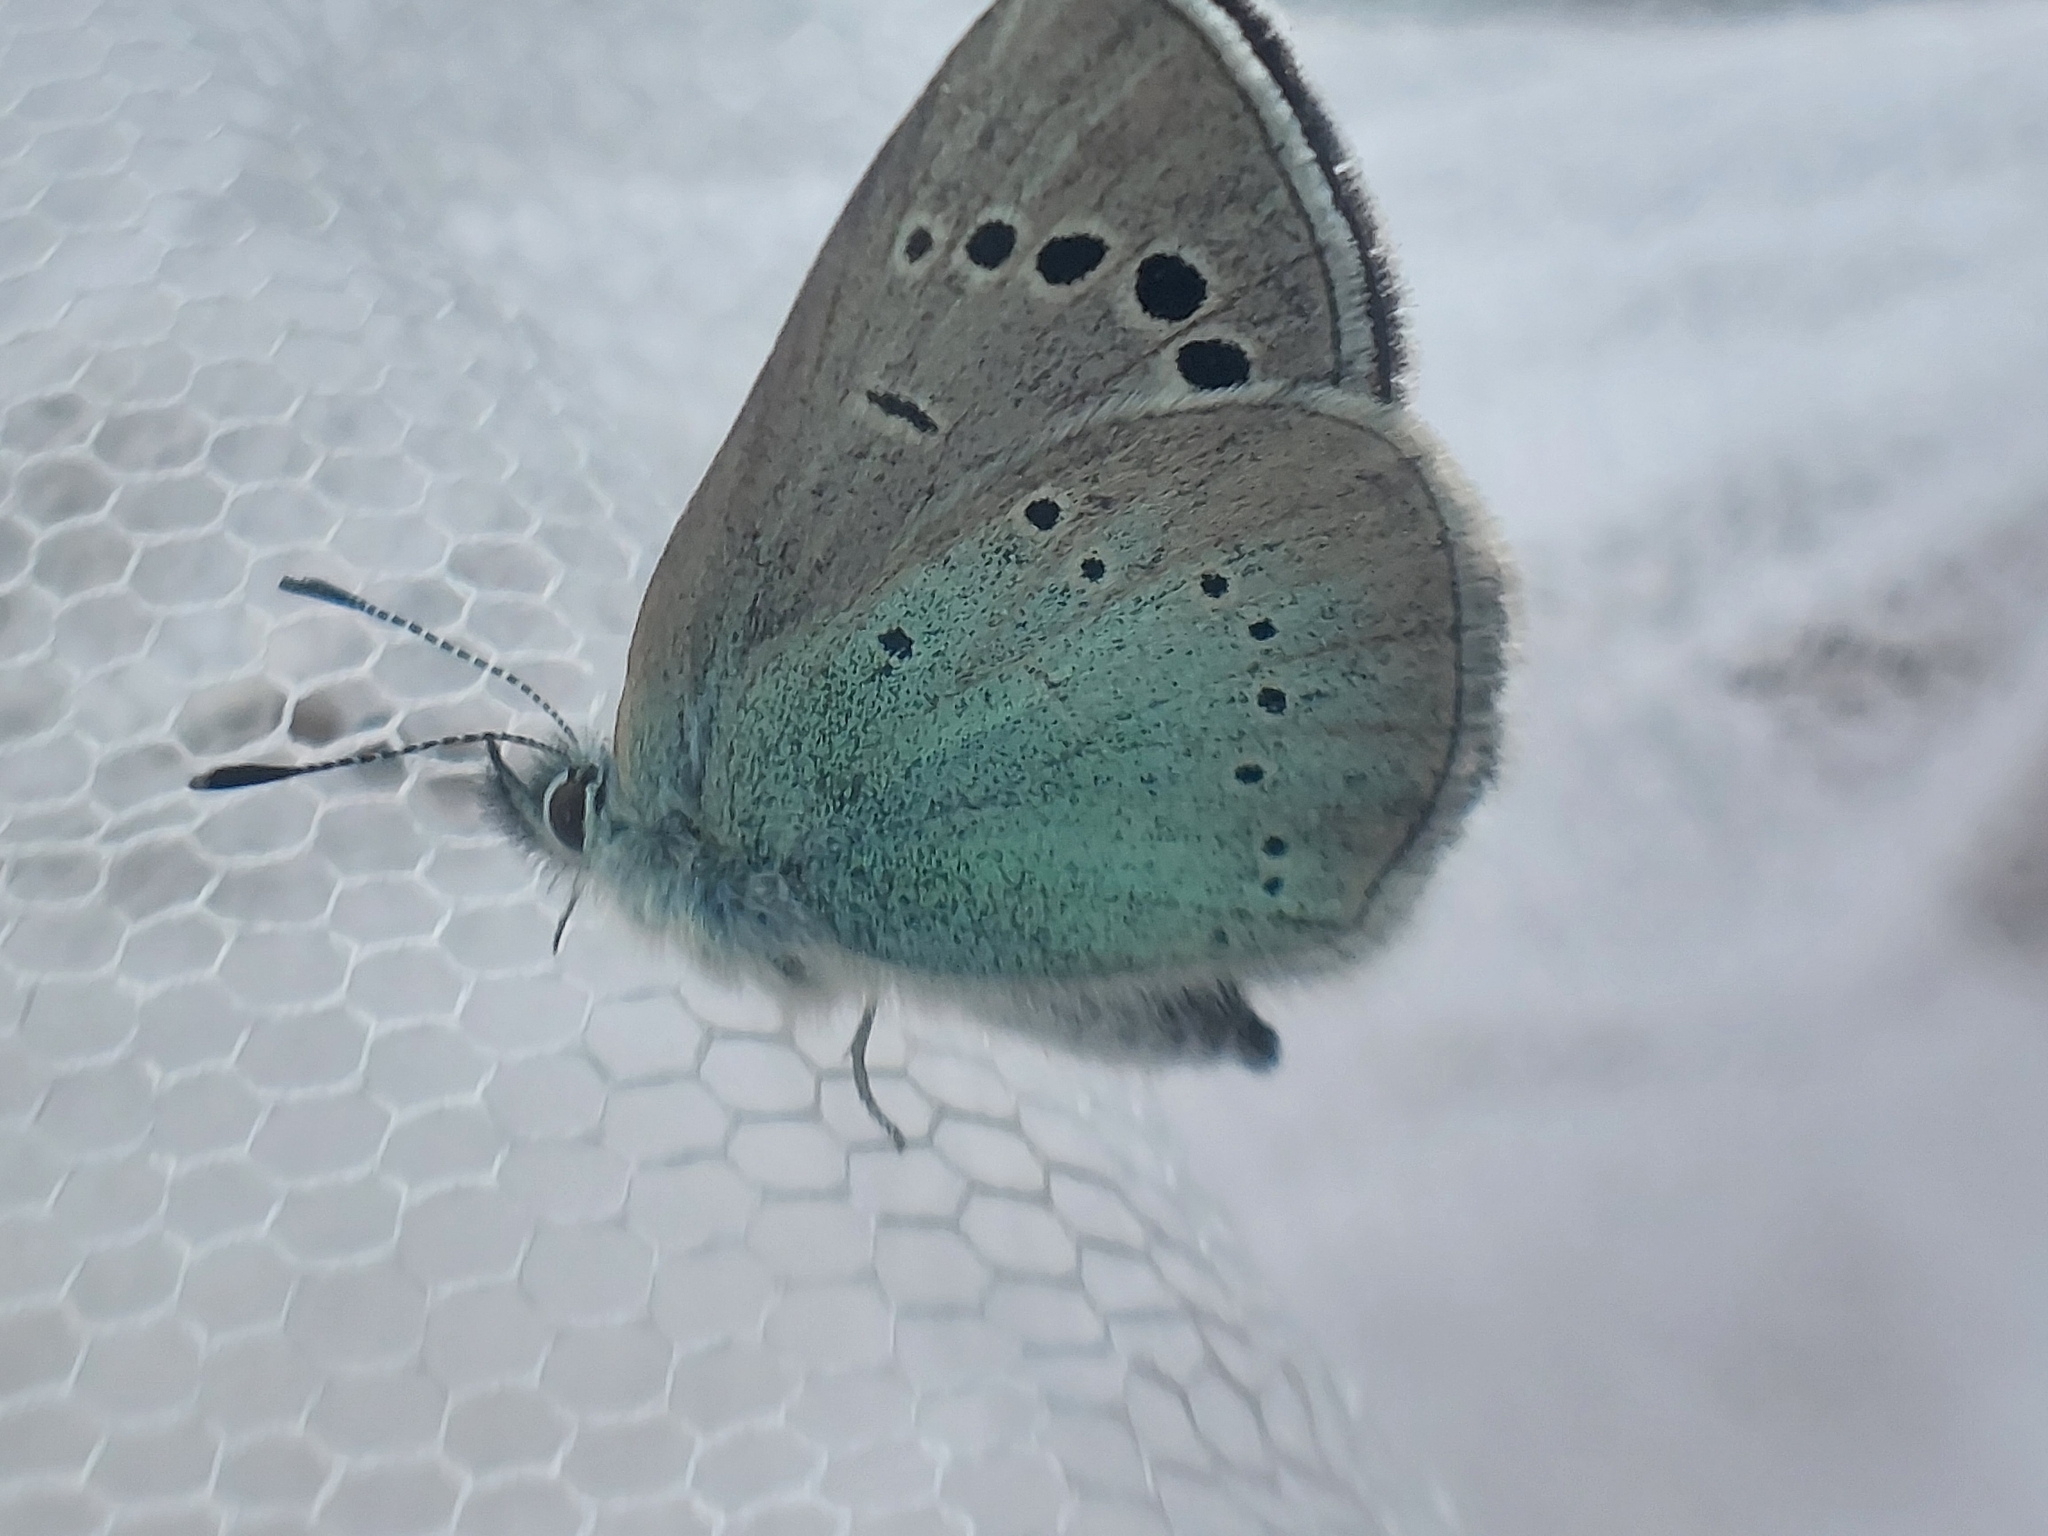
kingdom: Animalia
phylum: Arthropoda
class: Insecta
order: Lepidoptera
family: Lycaenidae
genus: Glaucopsyche
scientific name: Glaucopsyche alexis
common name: Green-underside blue
